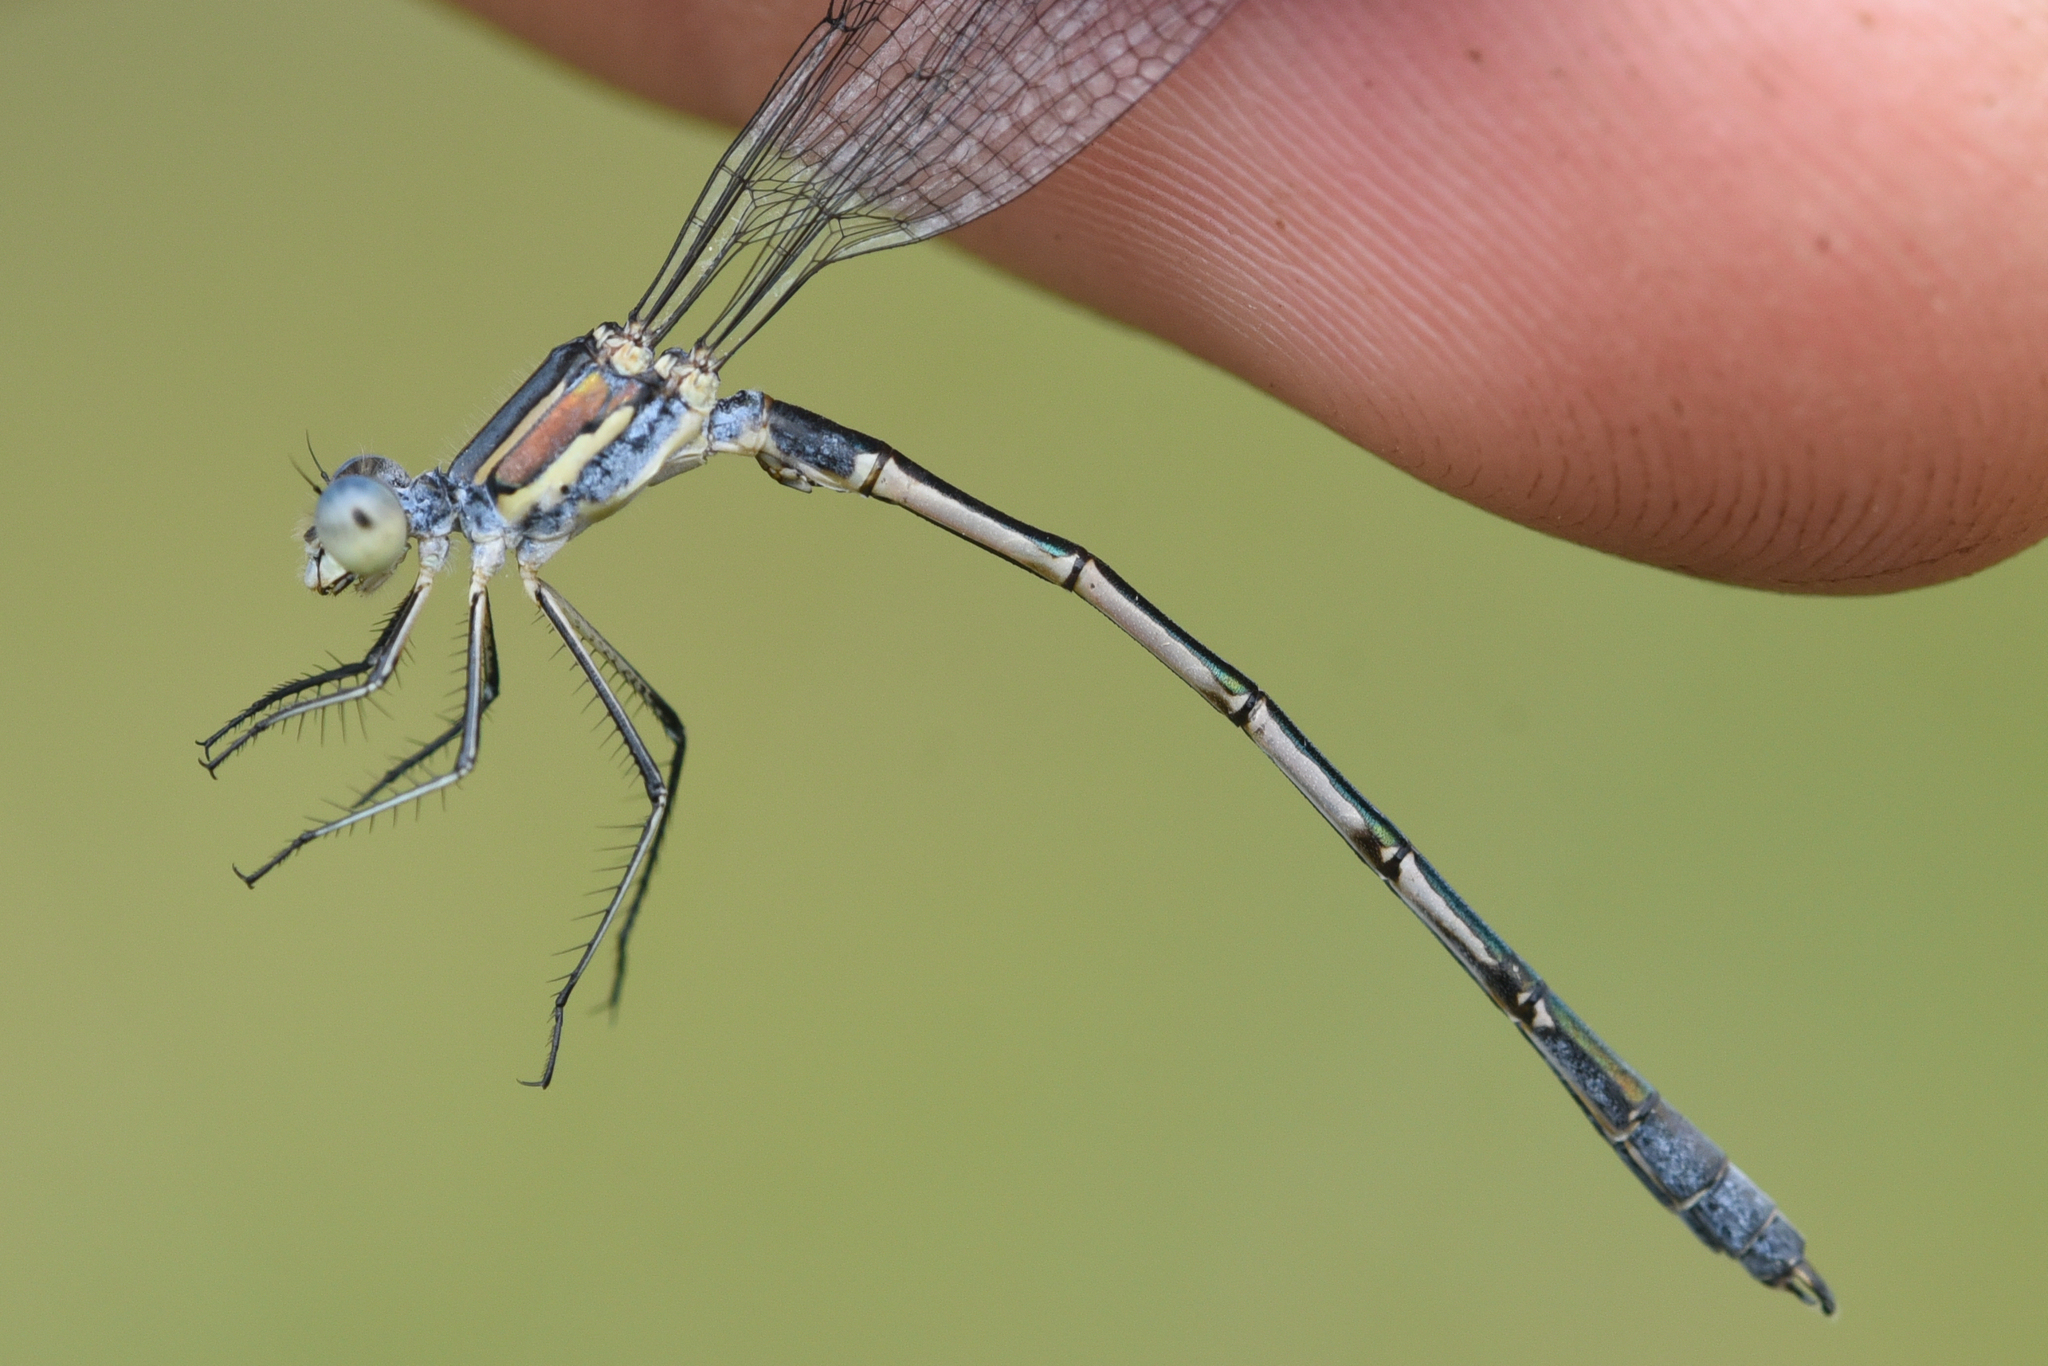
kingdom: Animalia
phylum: Arthropoda
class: Insecta
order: Odonata
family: Lestidae
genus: Lestes
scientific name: Lestes unguiculatus
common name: Lyre-tipped spreadwing
